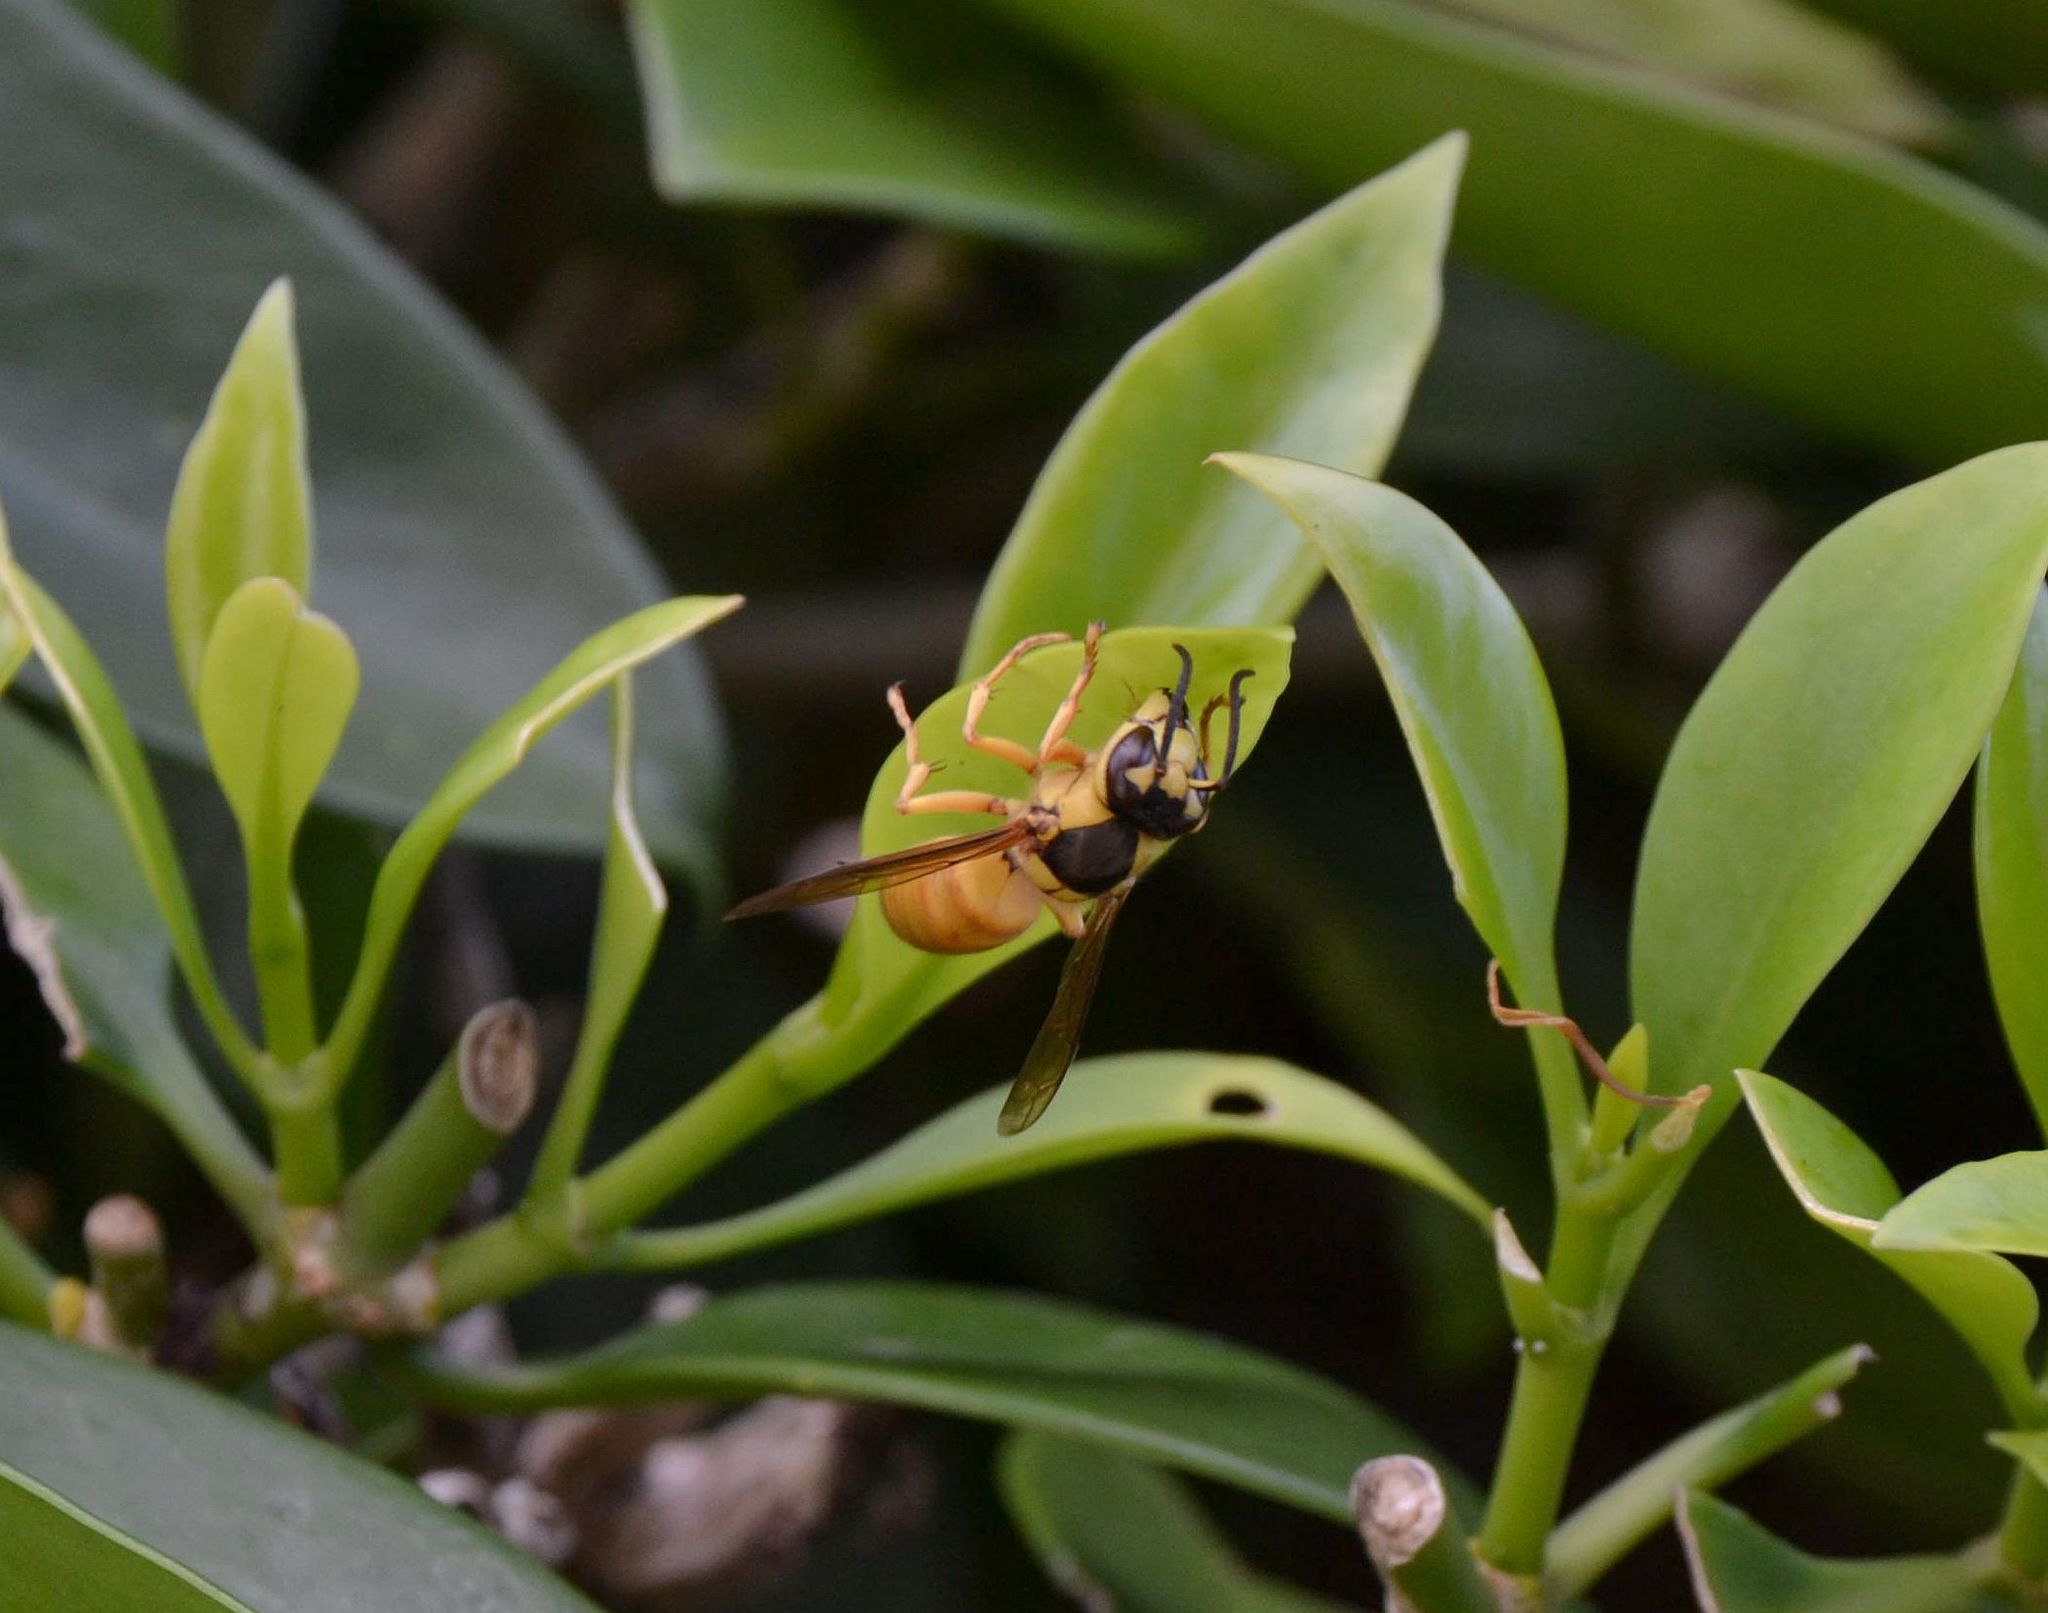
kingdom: Animalia
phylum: Arthropoda
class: Insecta
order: Hymenoptera
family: Vespidae
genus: Vespa
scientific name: Vespa bicolor
